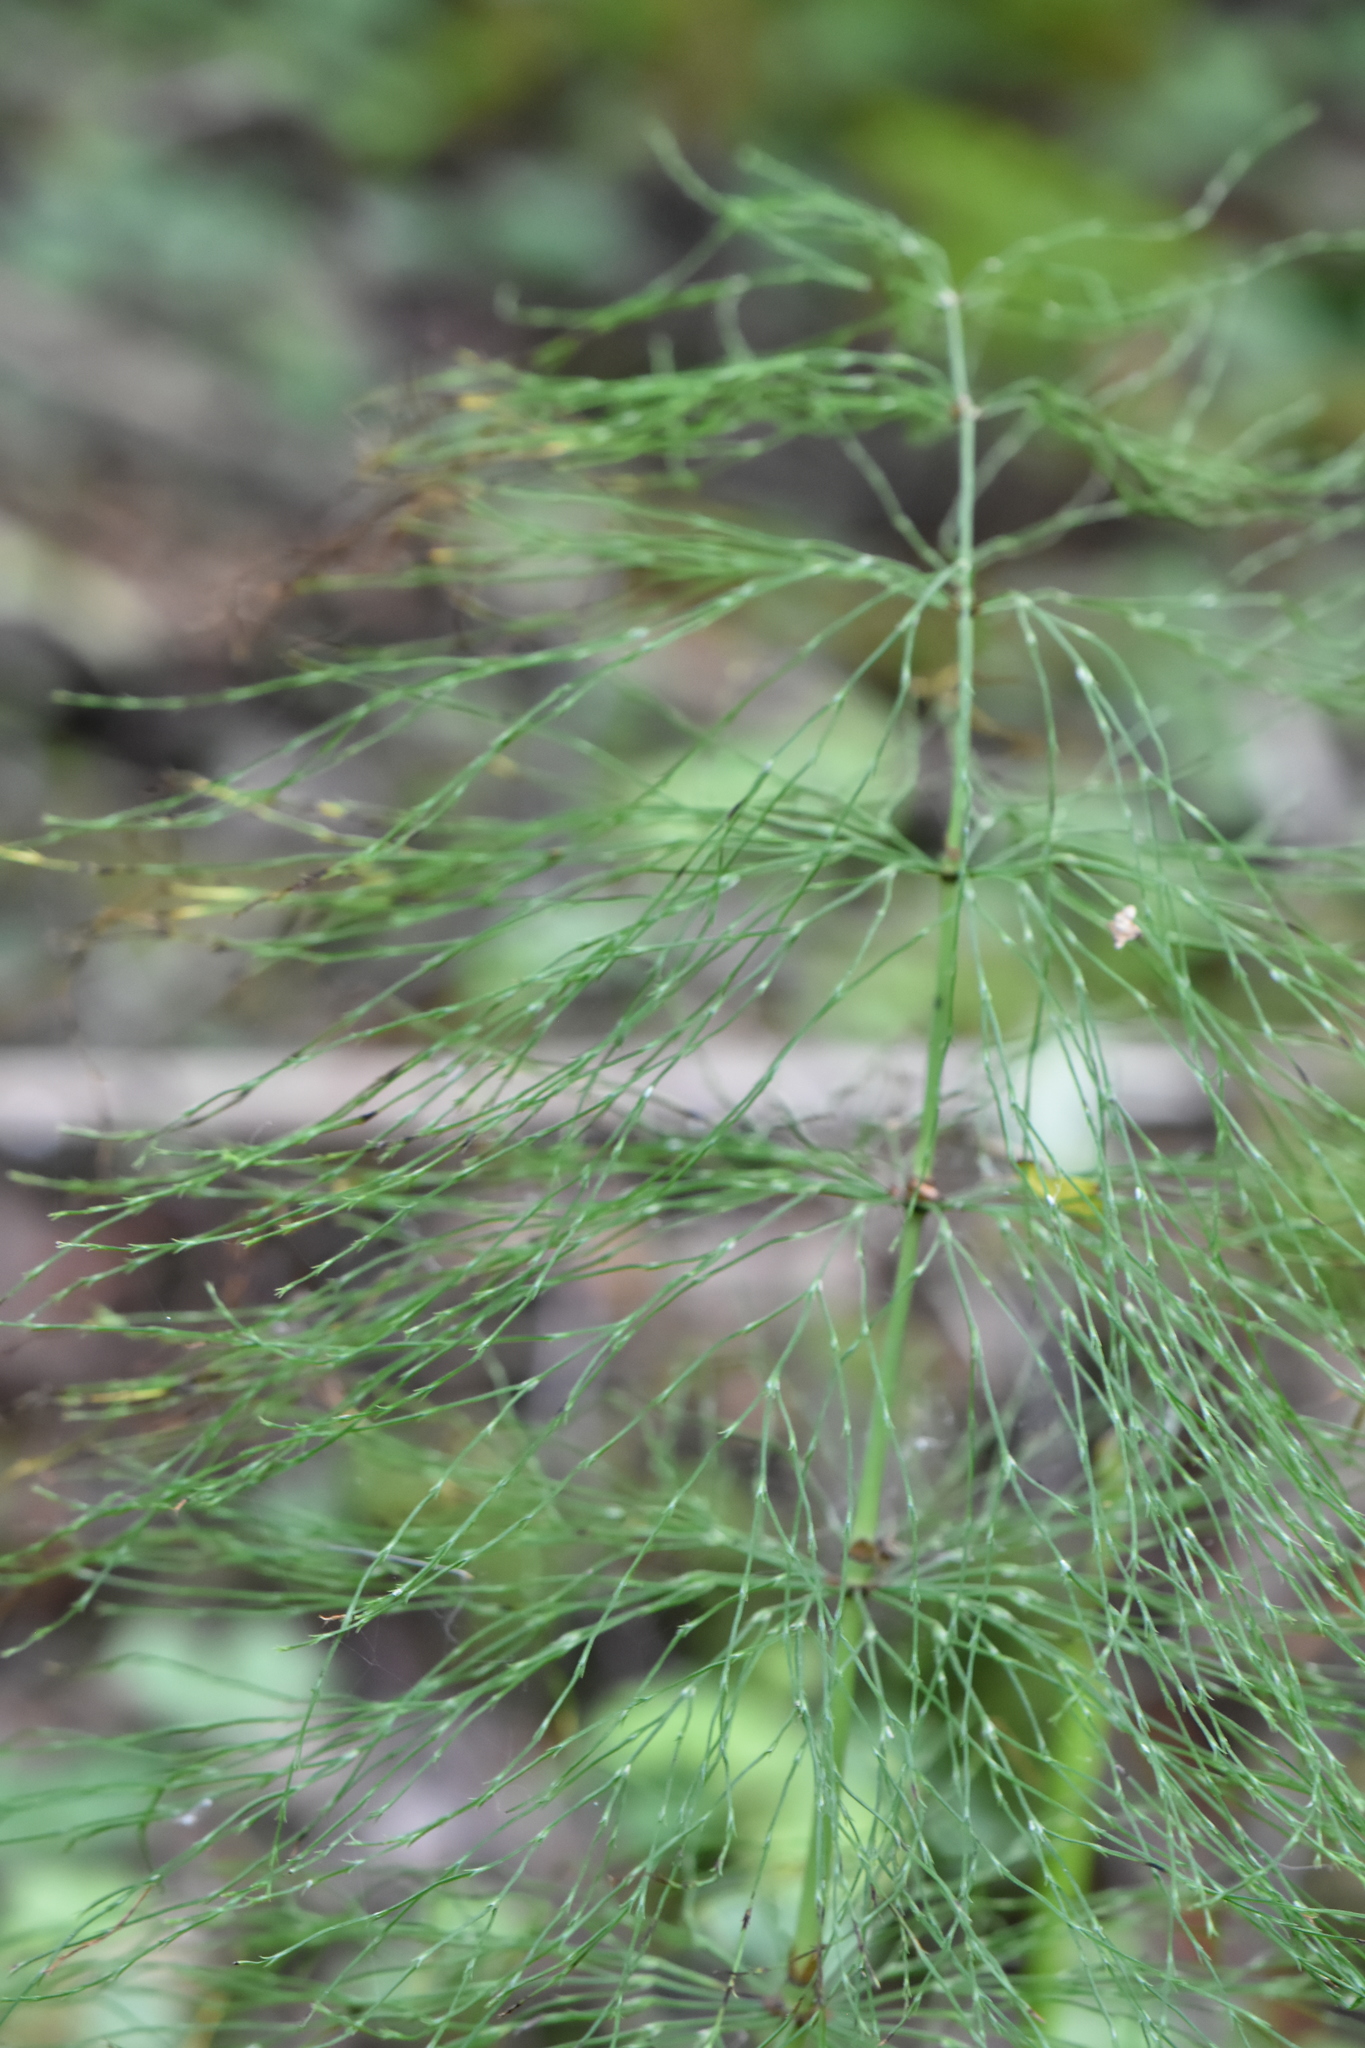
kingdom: Plantae
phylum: Tracheophyta
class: Polypodiopsida
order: Equisetales
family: Equisetaceae
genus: Equisetum
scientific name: Equisetum sylvaticum
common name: Wood horsetail
